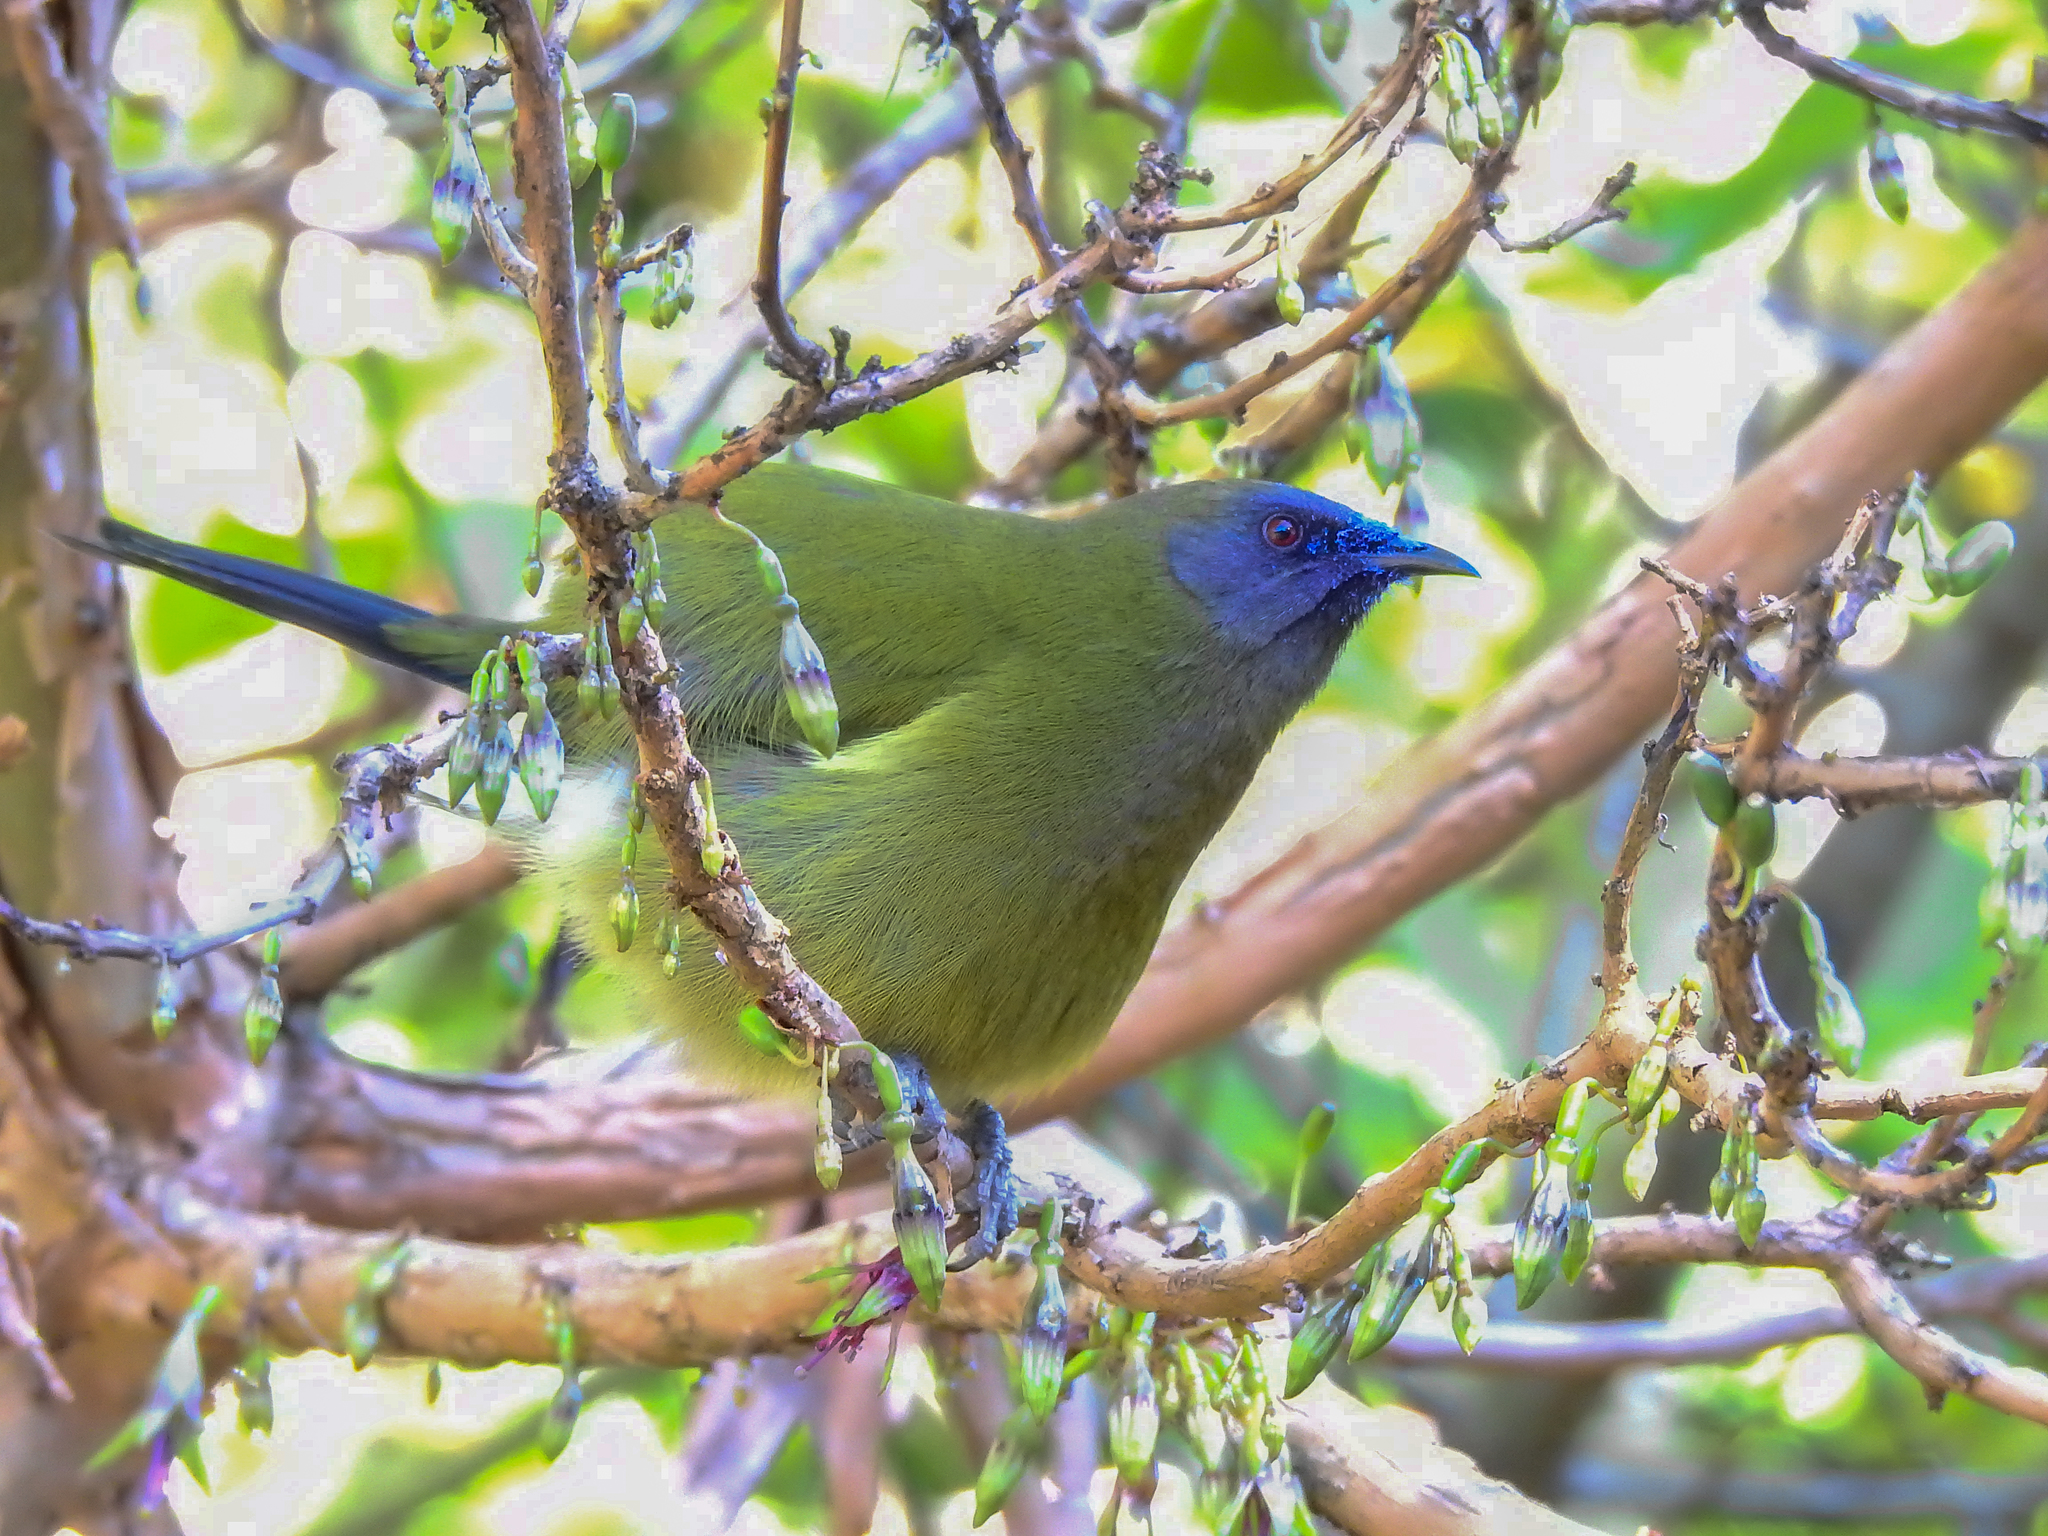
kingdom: Animalia
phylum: Chordata
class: Aves
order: Passeriformes
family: Meliphagidae
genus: Anthornis
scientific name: Anthornis melanura
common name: New zealand bellbird
